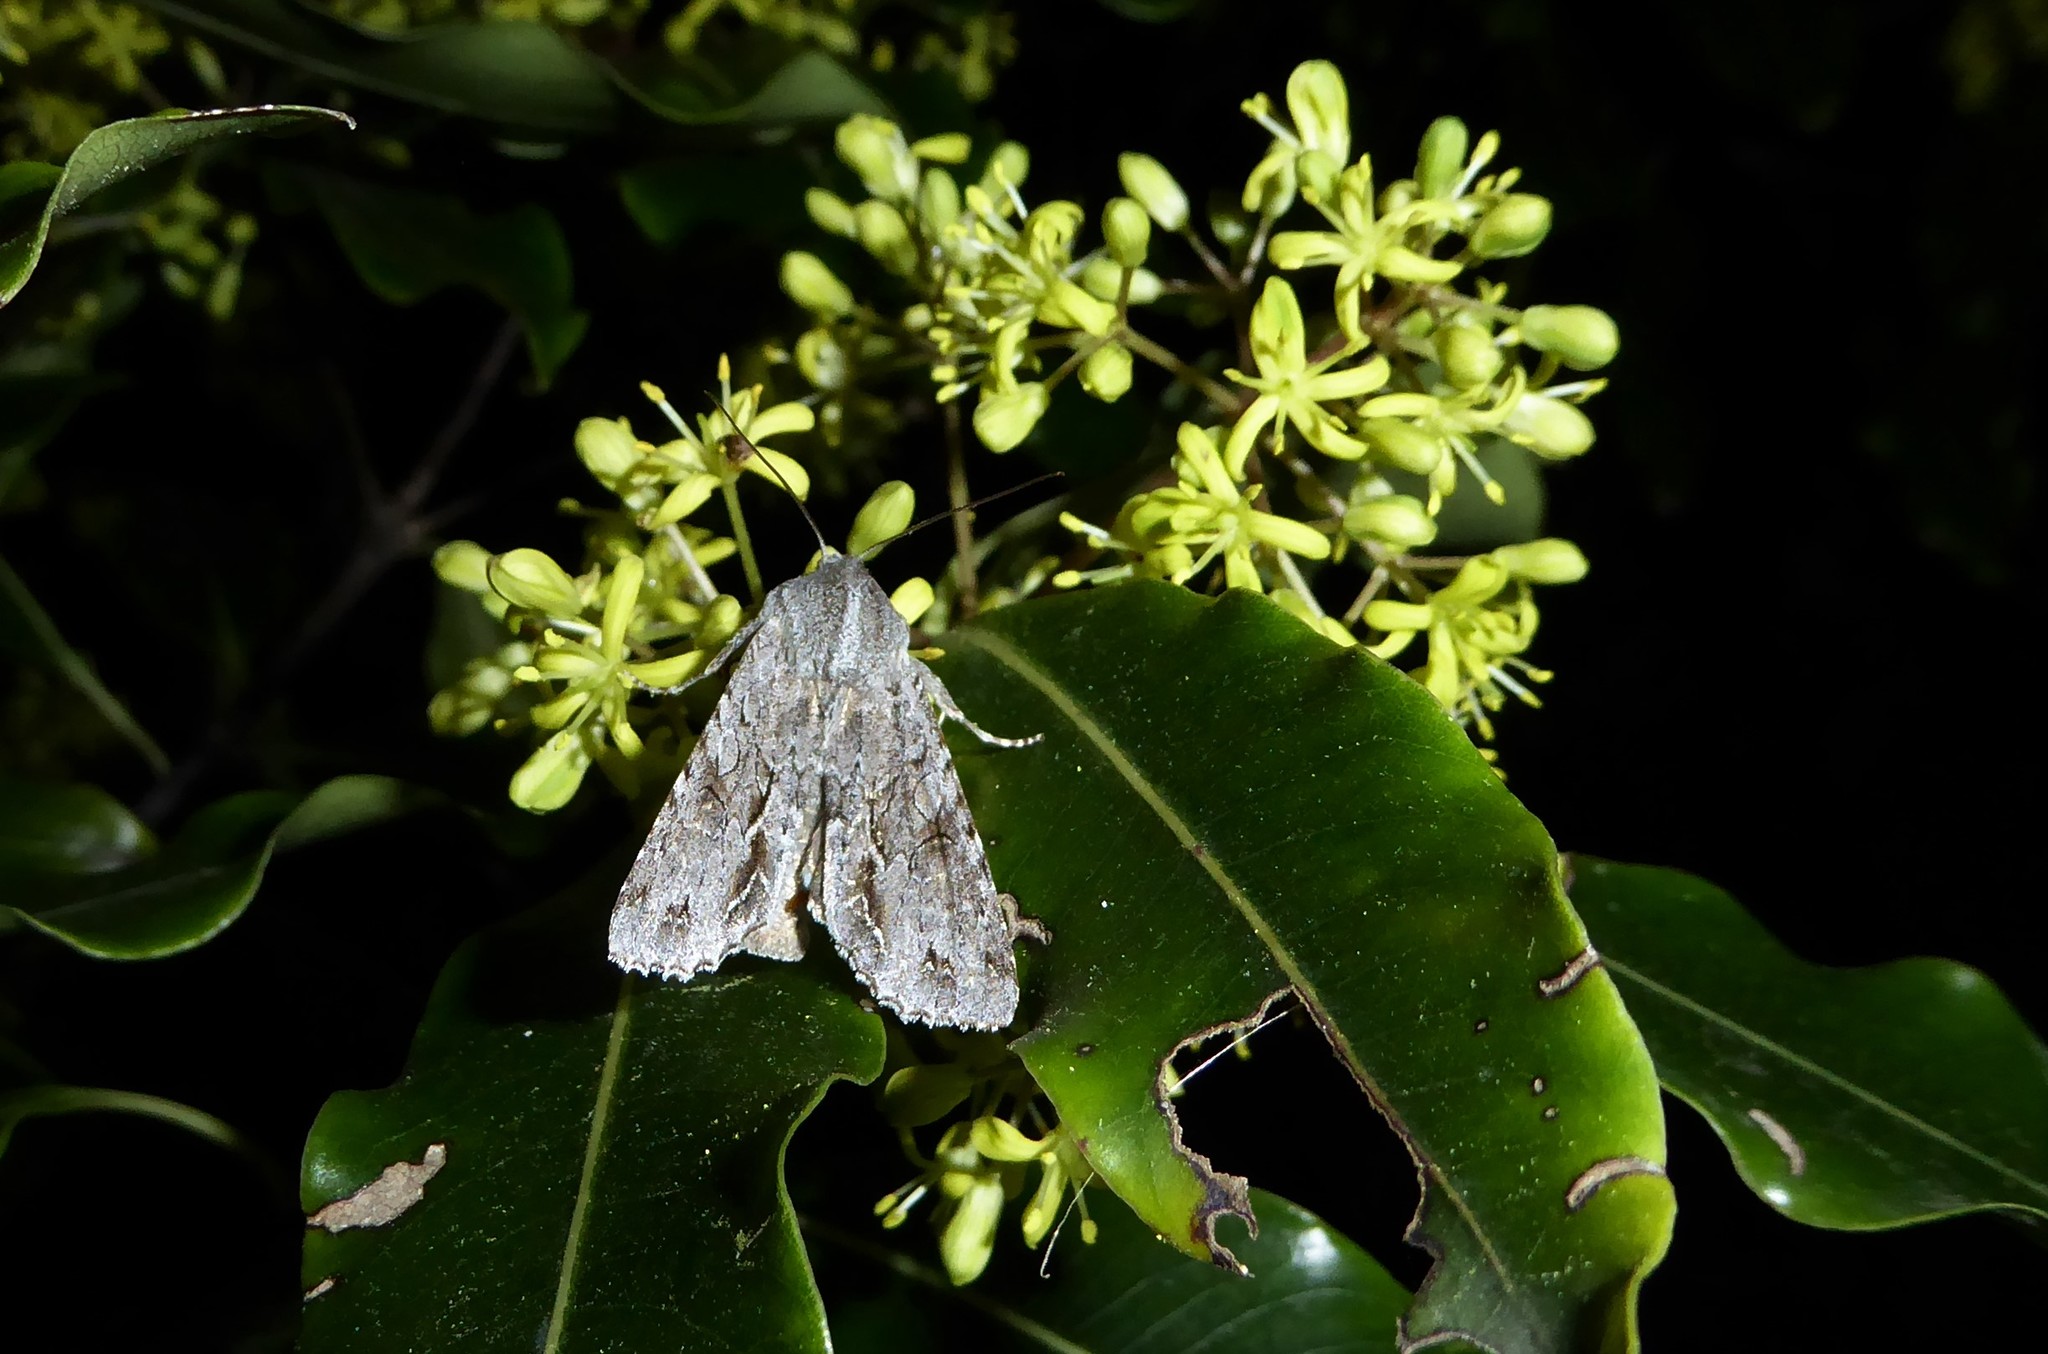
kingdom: Animalia
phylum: Arthropoda
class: Insecta
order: Lepidoptera
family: Noctuidae
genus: Ichneutica
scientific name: Ichneutica
